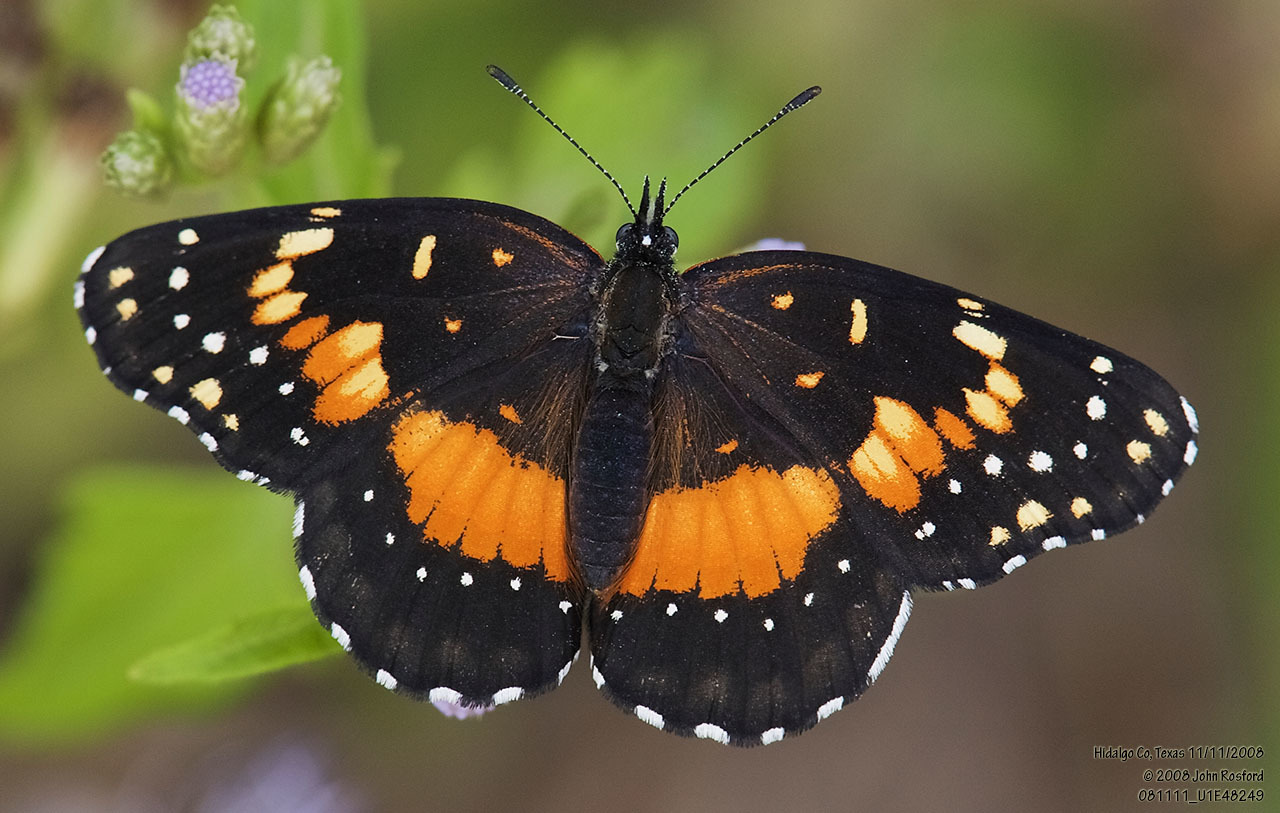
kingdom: Animalia
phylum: Arthropoda
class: Insecta
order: Lepidoptera
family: Nymphalidae
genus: Chlosyne
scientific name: Chlosyne lacinia
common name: Bordered patch
